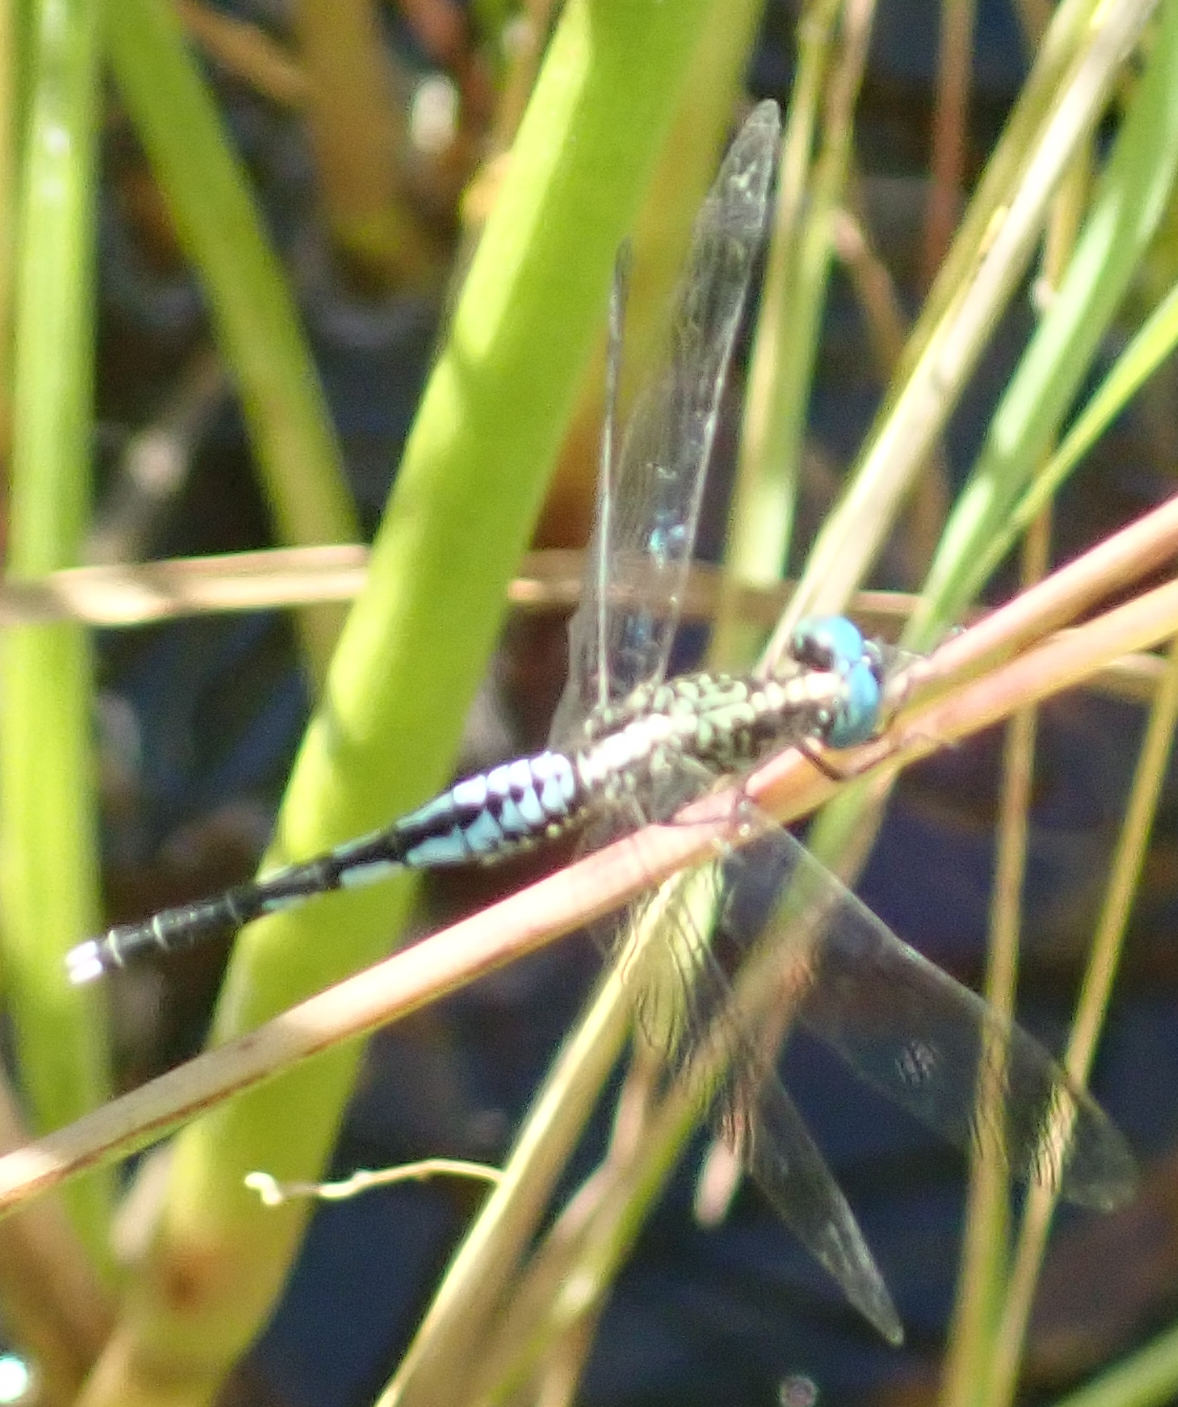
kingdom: Animalia
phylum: Arthropoda
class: Insecta
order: Odonata
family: Libellulidae
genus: Acisoma
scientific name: Acisoma inflatum
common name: Stout pintail
